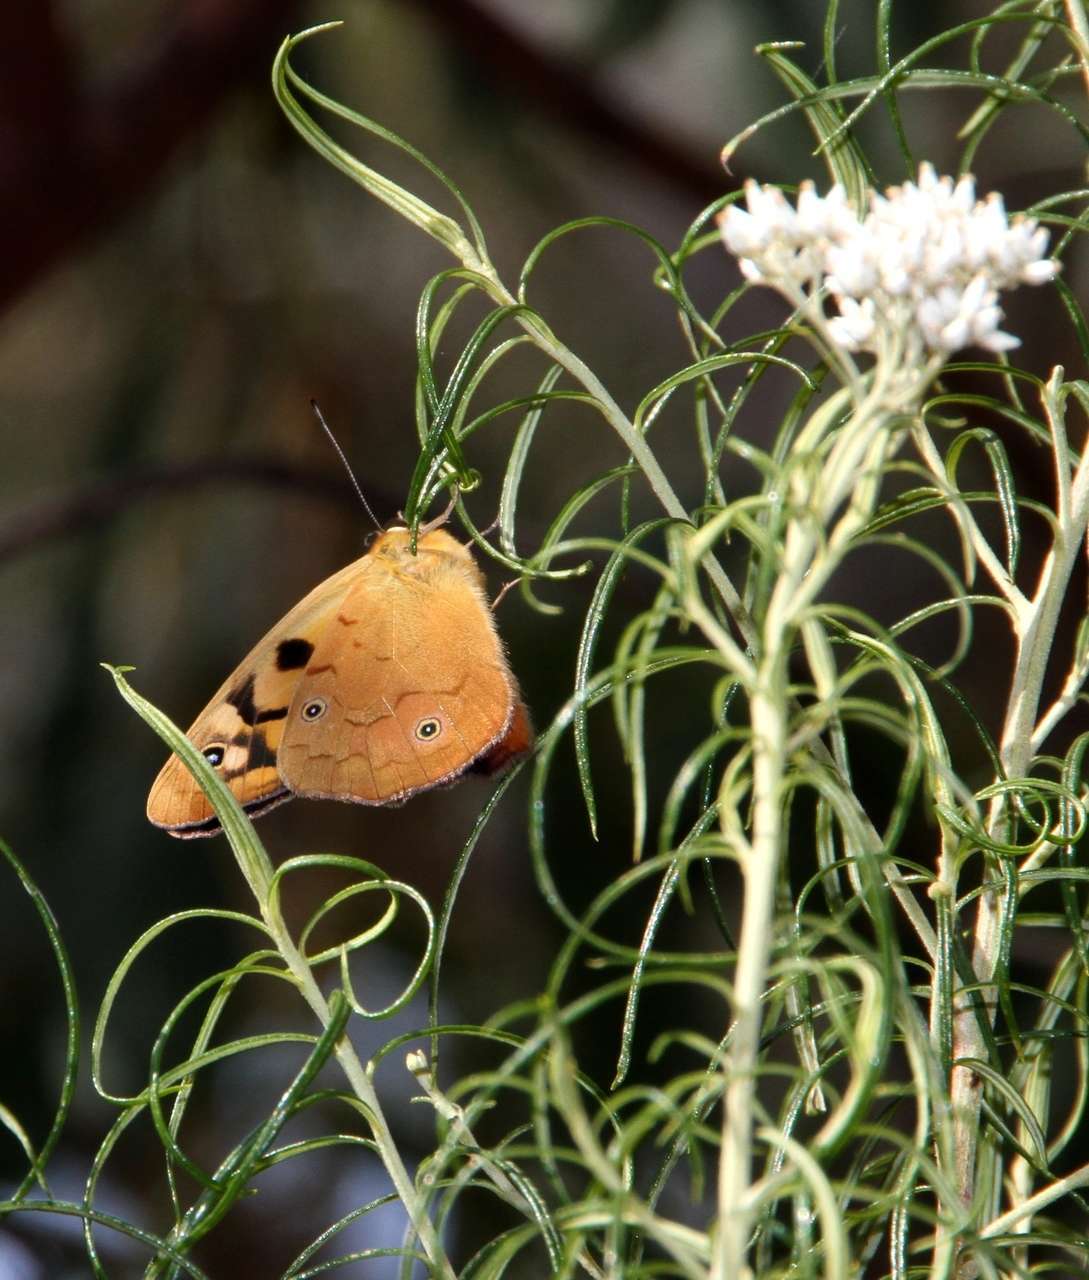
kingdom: Animalia
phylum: Arthropoda
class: Insecta
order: Lepidoptera
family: Nymphalidae
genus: Heteronympha
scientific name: Heteronympha penelope
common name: Shouldered brown
